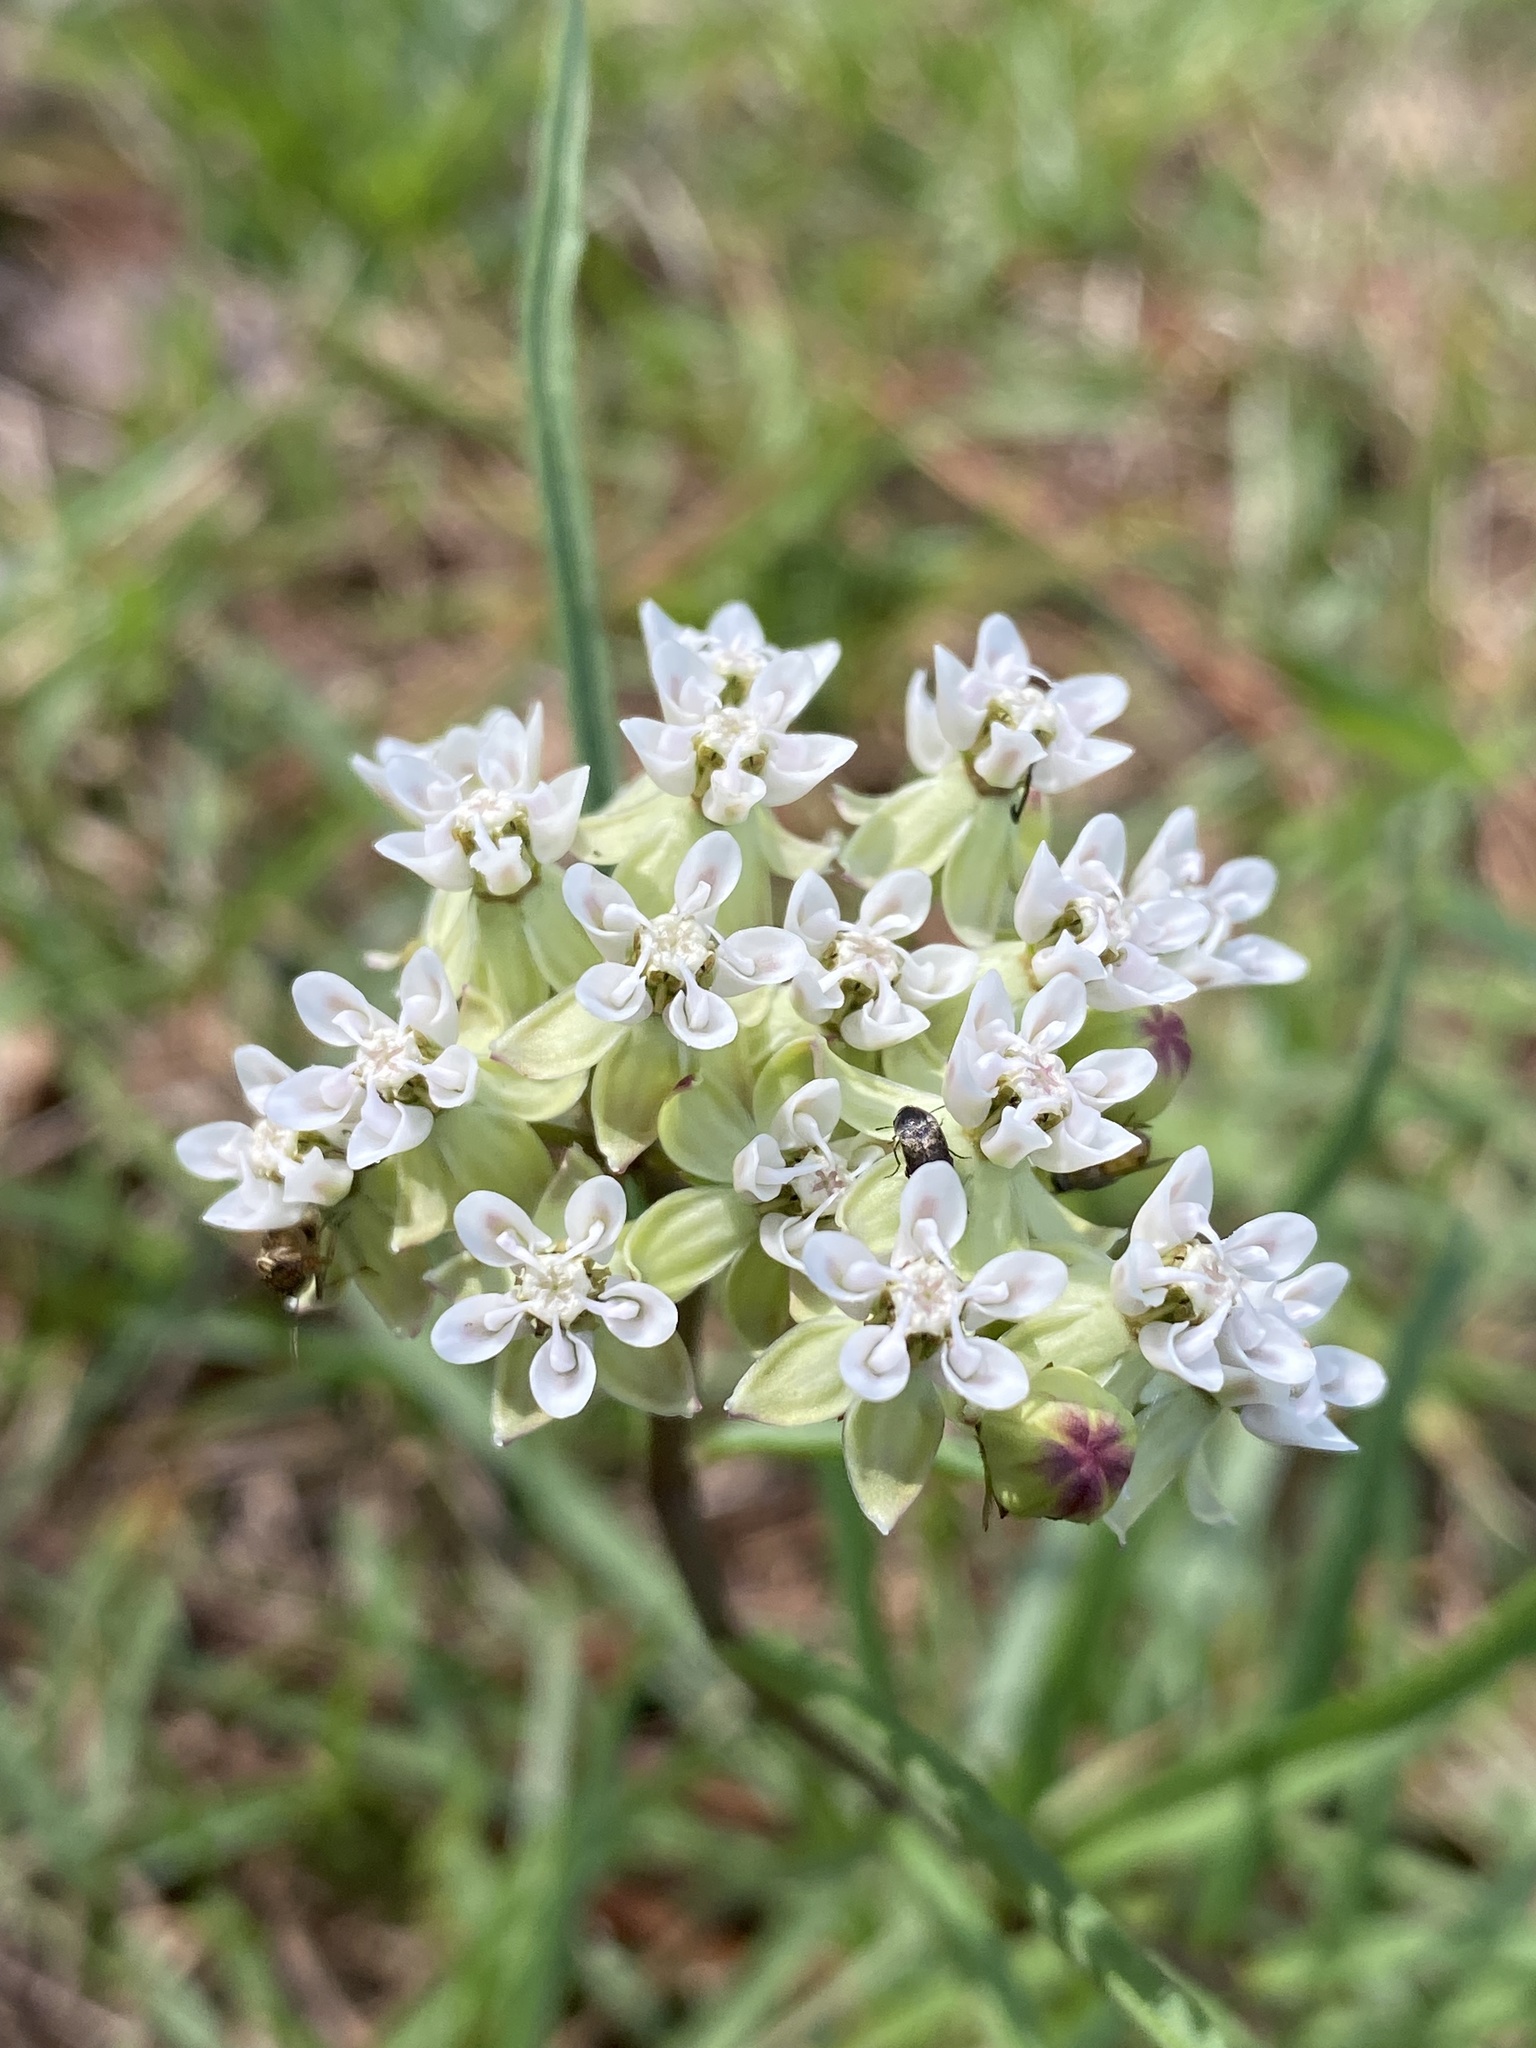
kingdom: Plantae
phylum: Tracheophyta
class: Magnoliopsida
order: Gentianales
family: Apocynaceae
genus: Asclepias
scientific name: Asclepias michauxii
